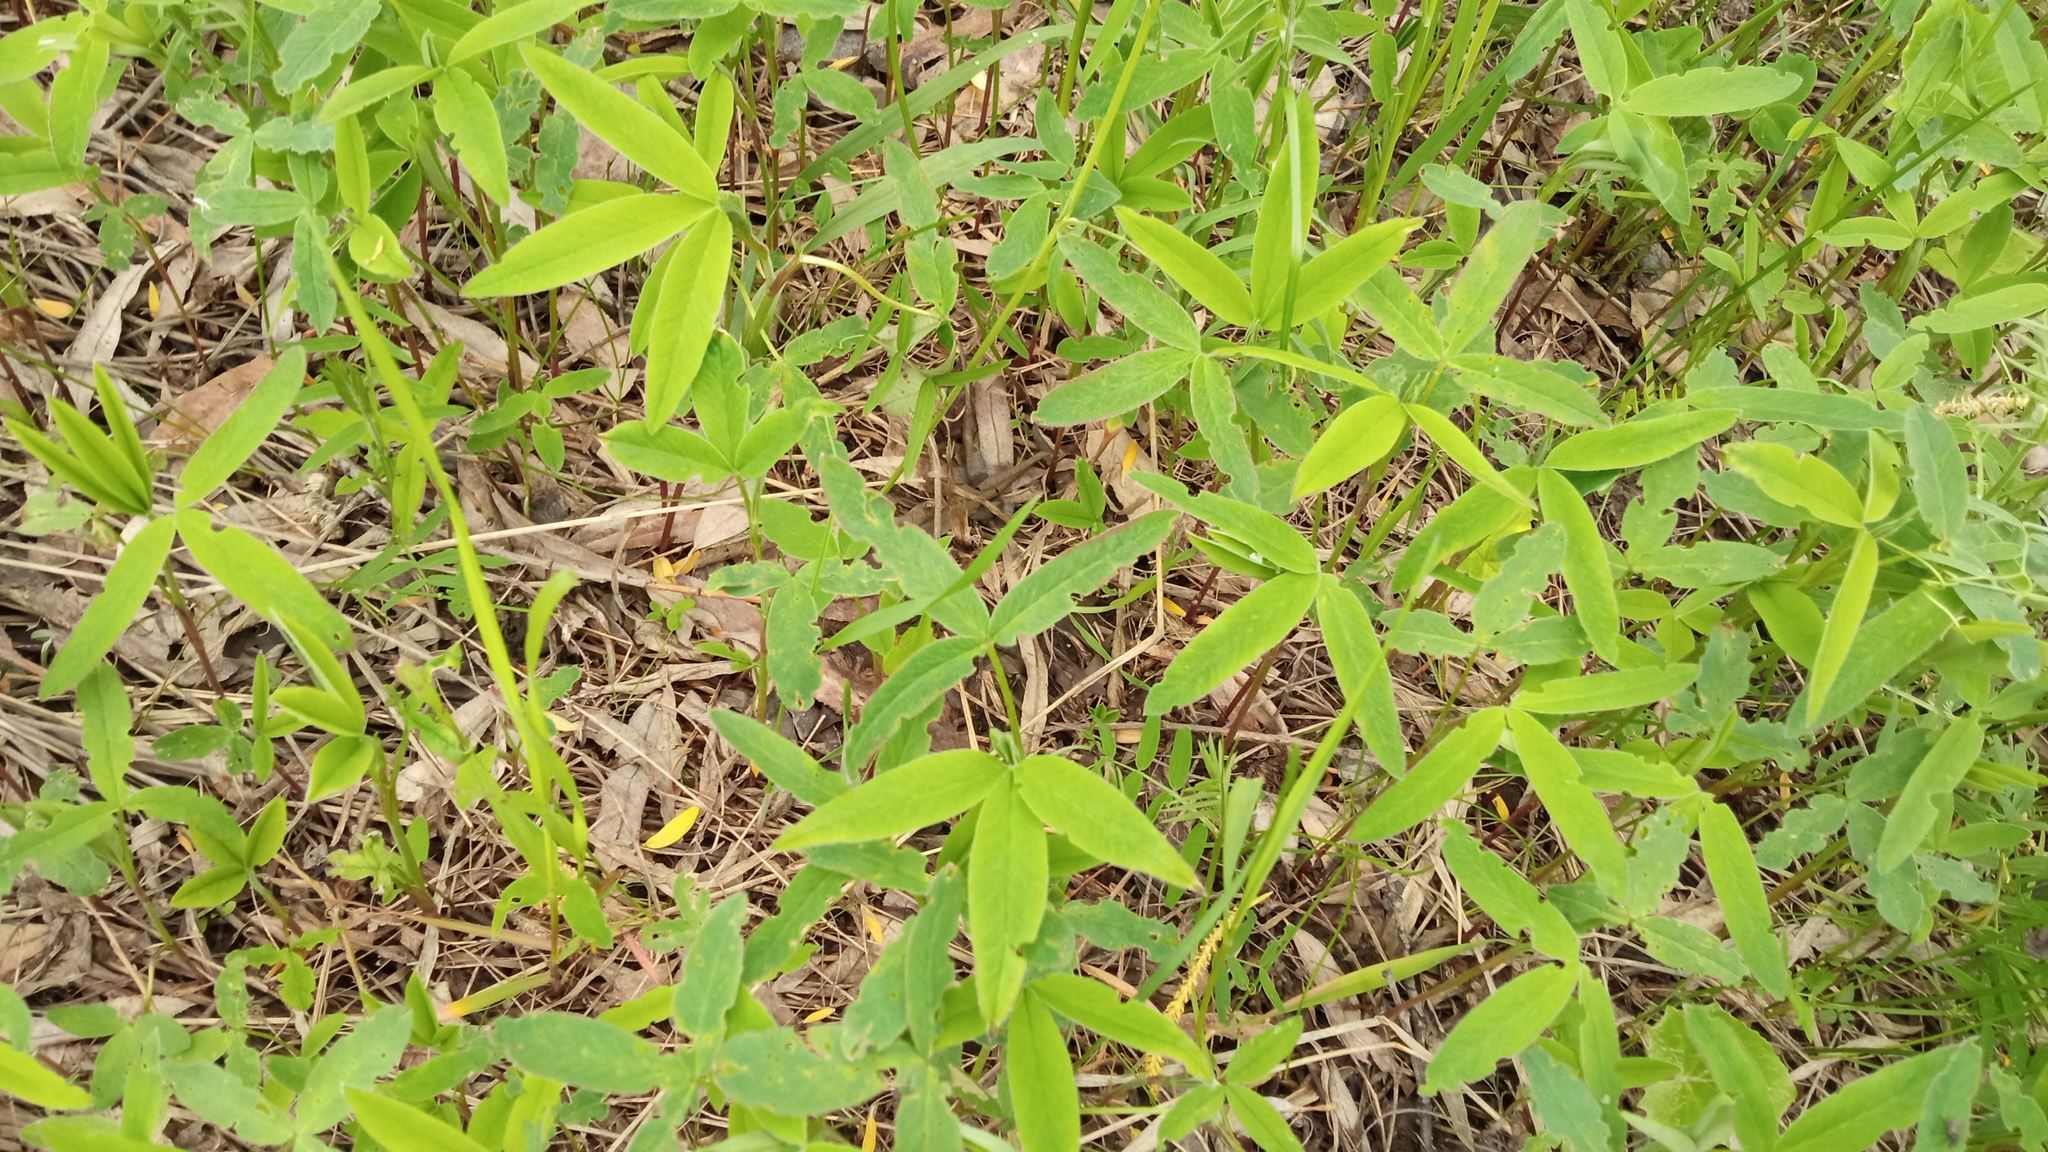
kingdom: Plantae
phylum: Tracheophyta
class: Magnoliopsida
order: Fabales
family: Fabaceae
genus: Trifolium
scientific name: Trifolium medium
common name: Zigzag clover
